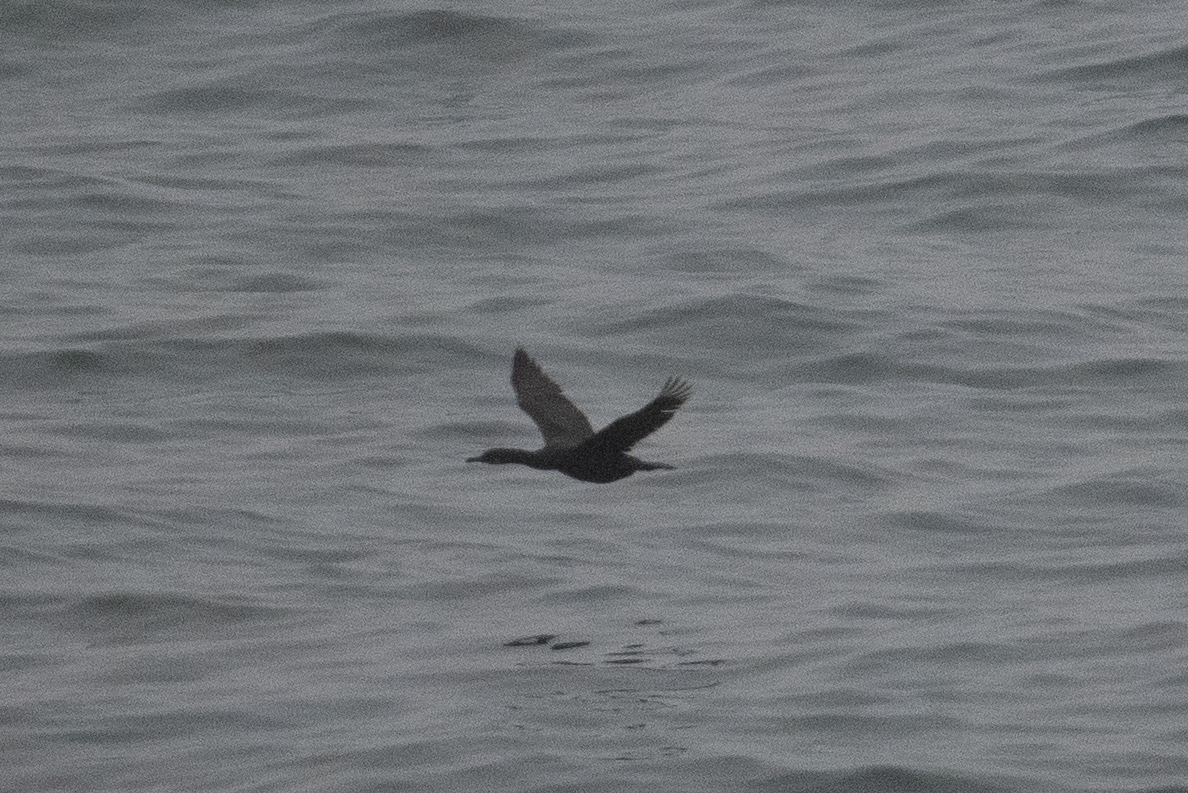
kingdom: Animalia
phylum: Chordata
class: Aves
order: Suliformes
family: Phalacrocoracidae
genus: Urile
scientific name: Urile penicillatus
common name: Brandt's cormorant
